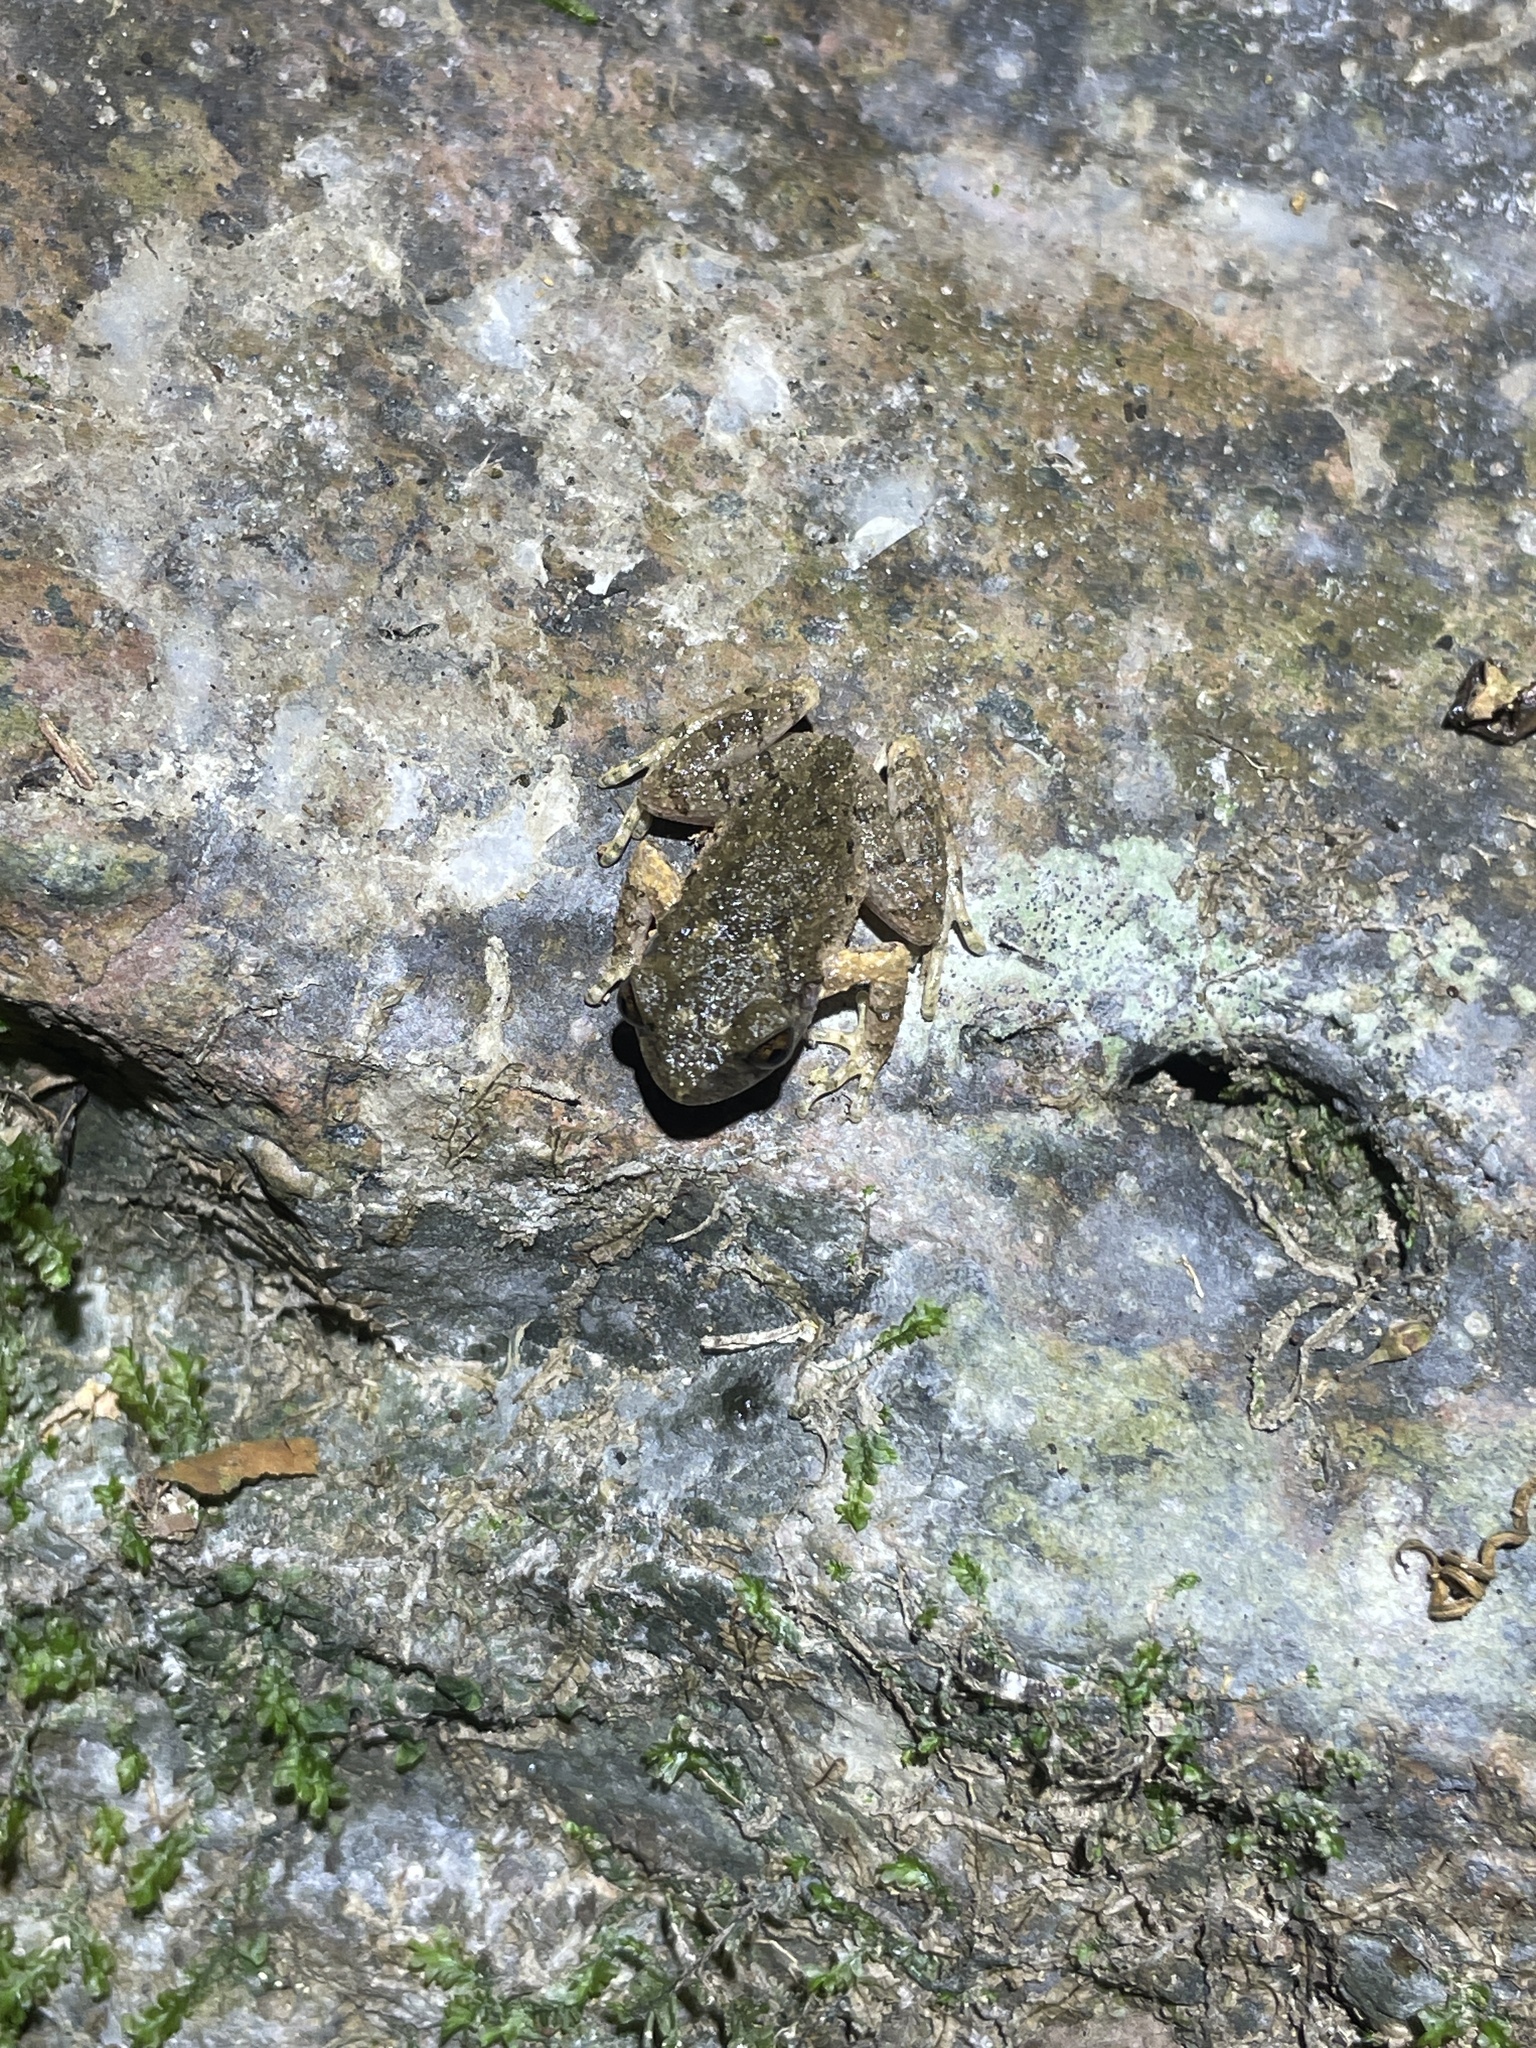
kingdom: Animalia
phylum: Chordata
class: Amphibia
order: Anura
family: Megophryidae
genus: Leptobrachella
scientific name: Leptobrachella laui
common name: Lau's leaf little toad
